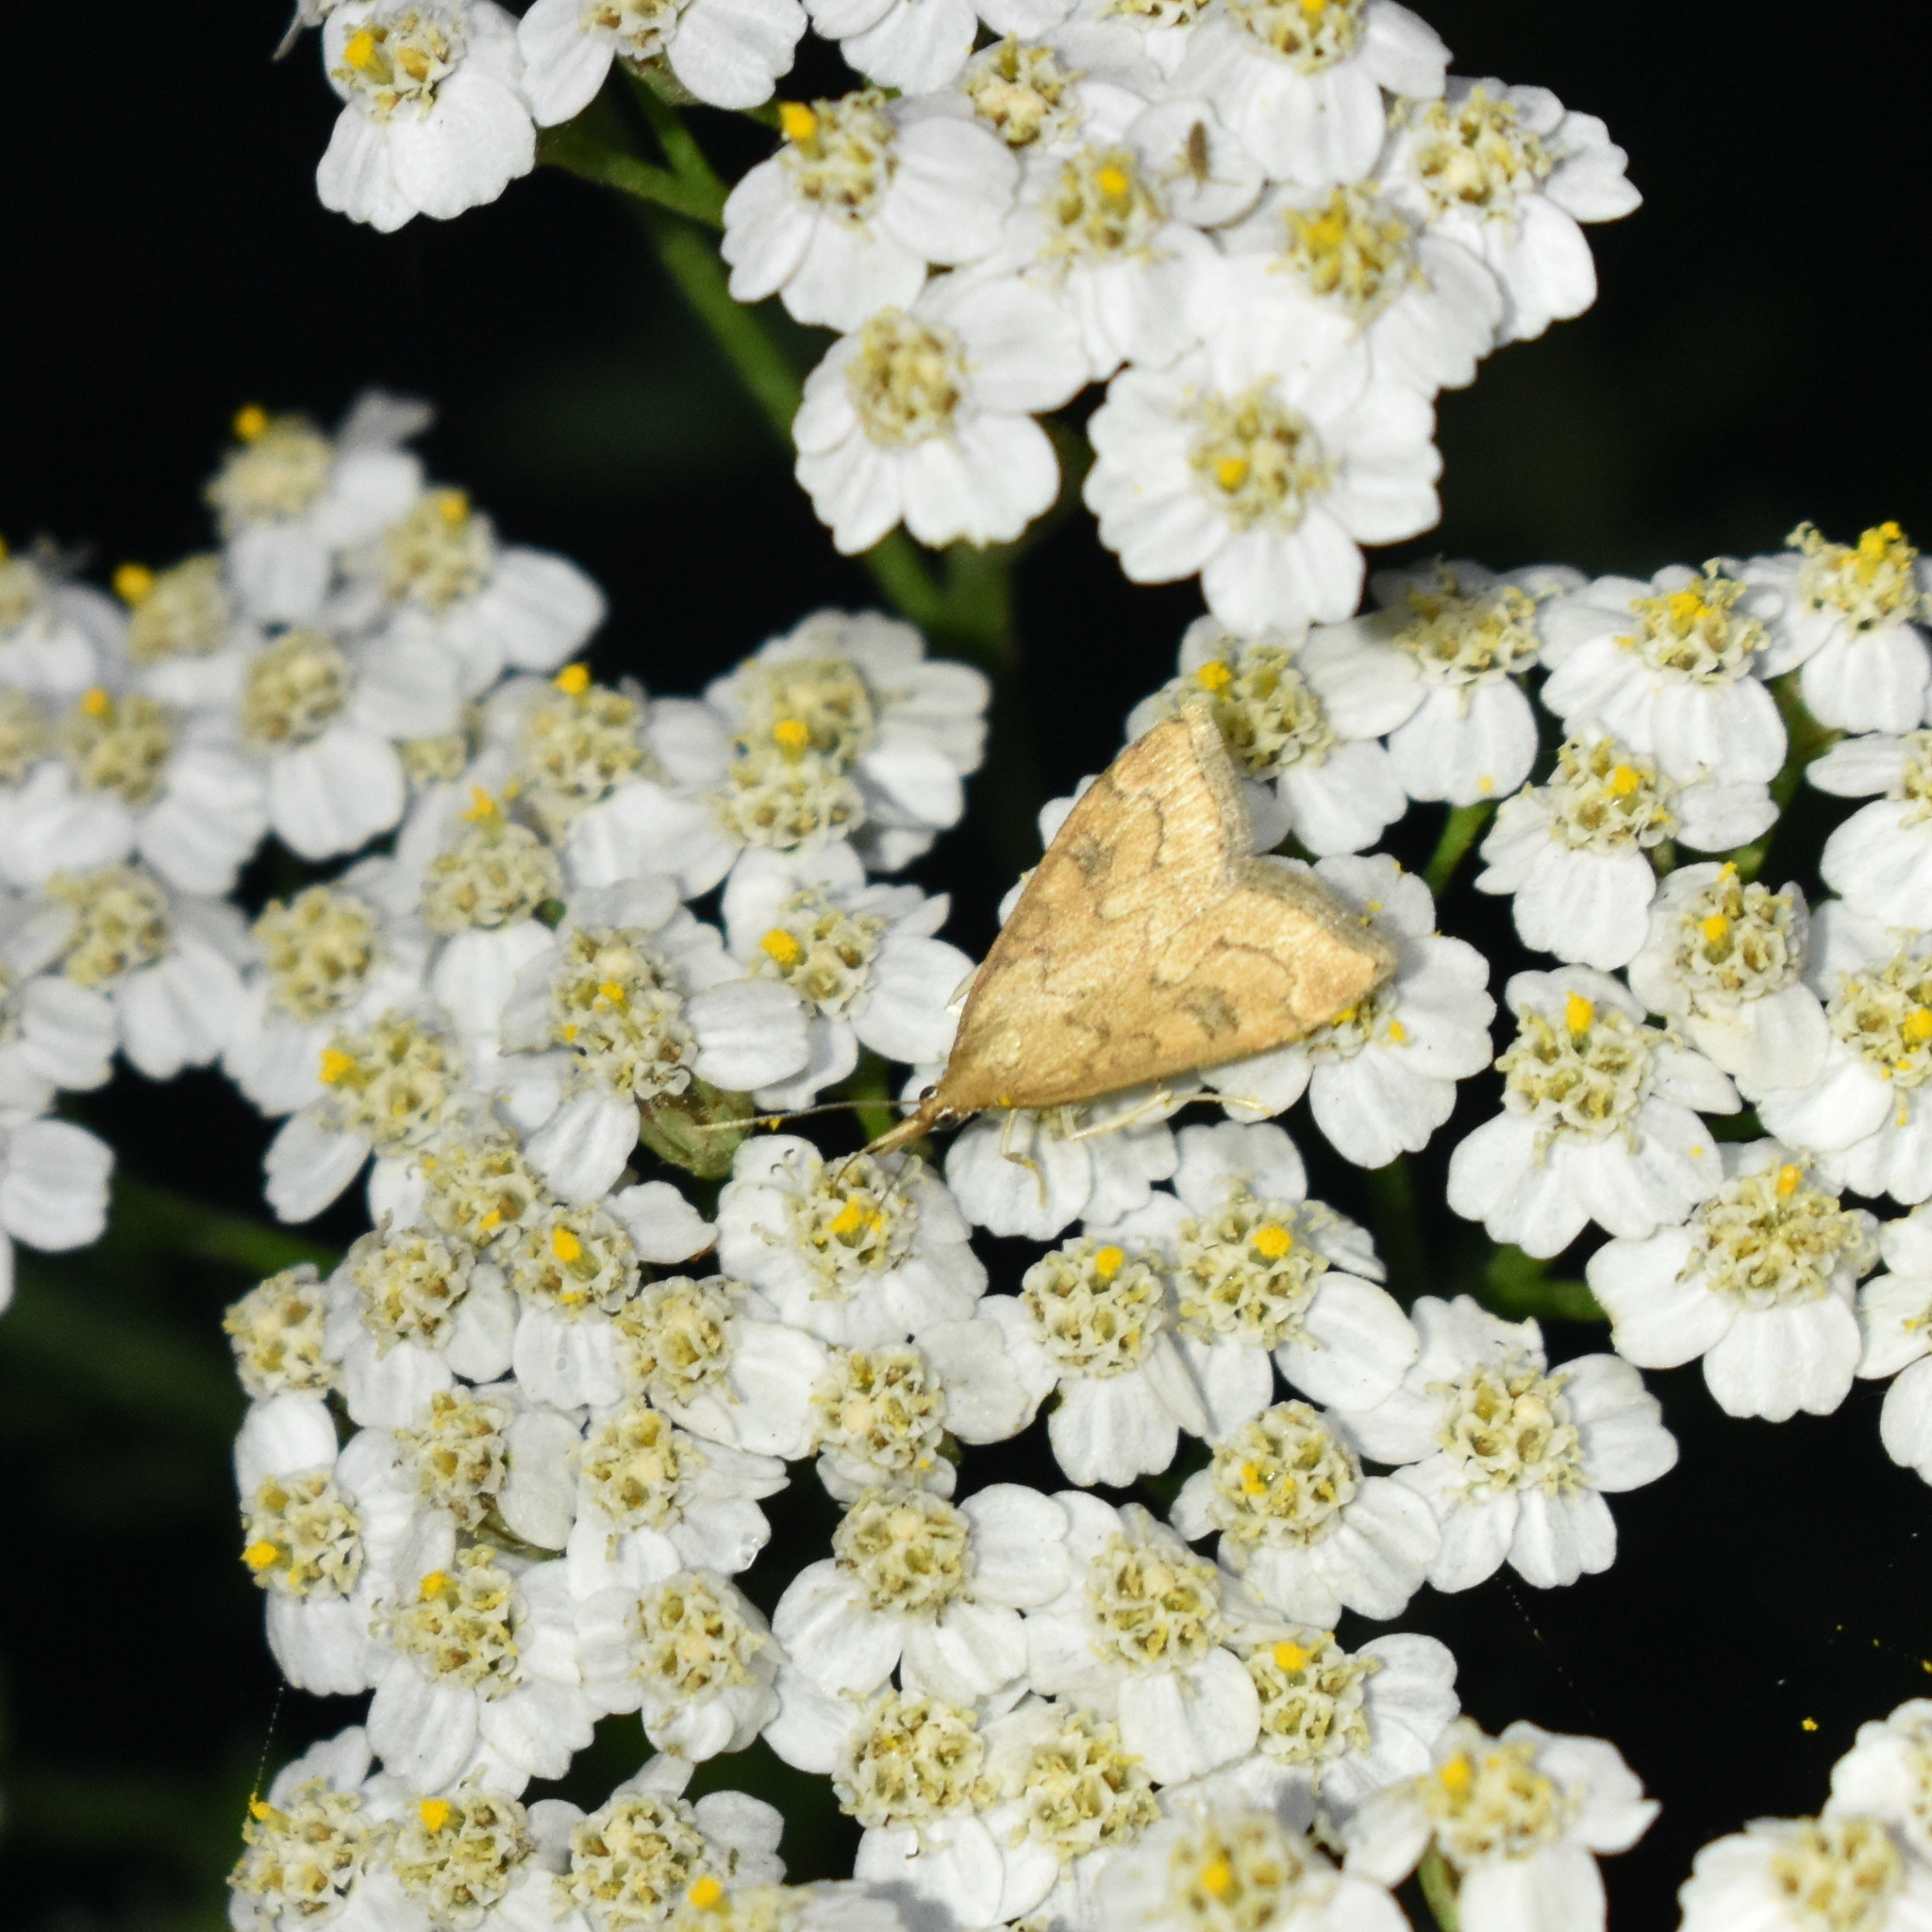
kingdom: Animalia
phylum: Arthropoda
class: Insecta
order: Lepidoptera
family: Crambidae
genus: Udea
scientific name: Udea profundalis
